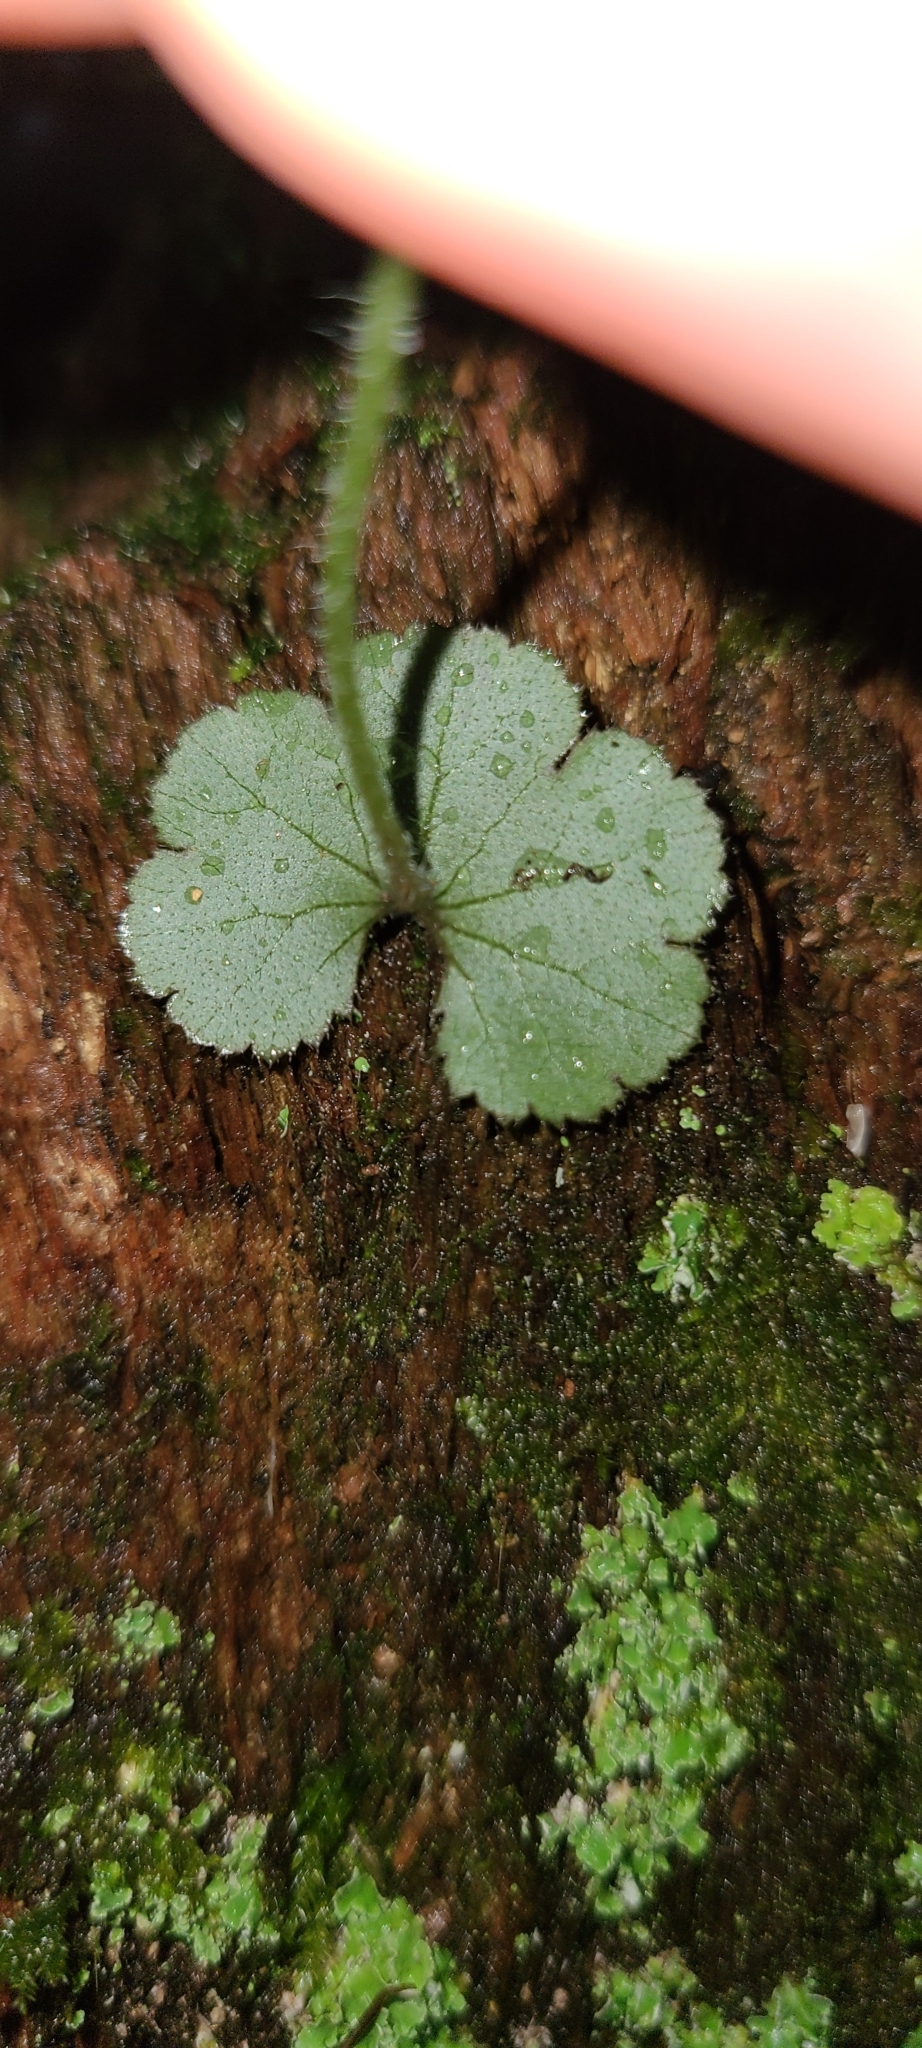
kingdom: Plantae
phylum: Tracheophyta
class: Magnoliopsida
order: Apiales
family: Araliaceae
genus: Hydrocotyle
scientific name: Hydrocotyle elongata
